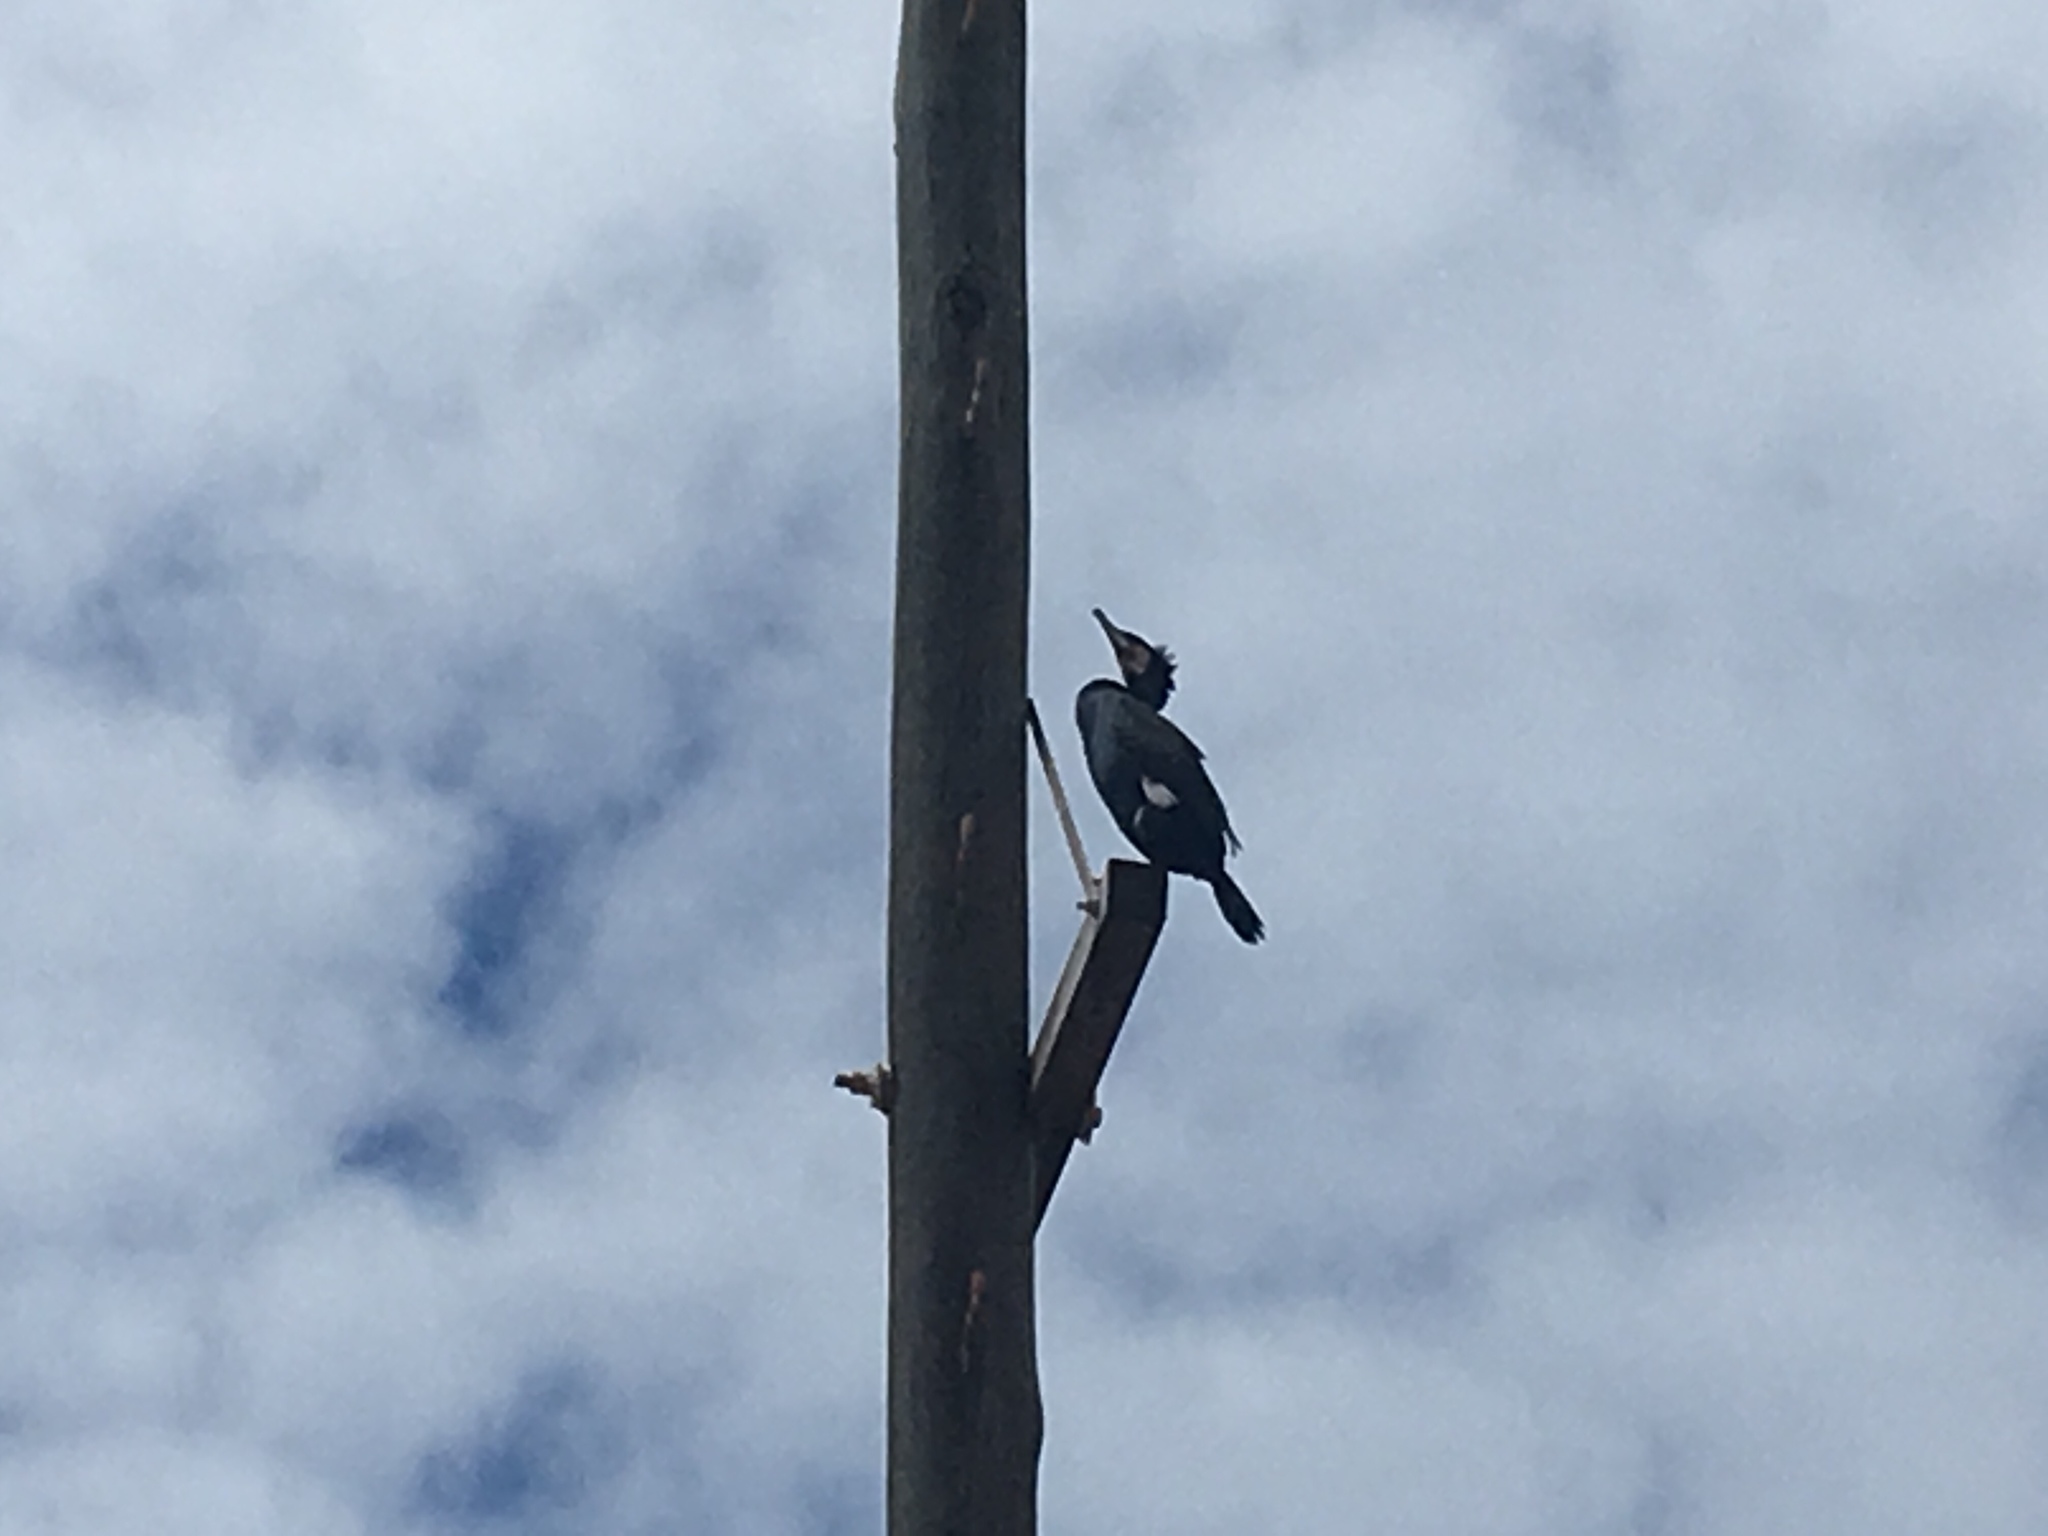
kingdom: Animalia
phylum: Chordata
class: Aves
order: Suliformes
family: Phalacrocoracidae
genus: Phalacrocorax
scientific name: Phalacrocorax carbo
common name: Great cormorant
